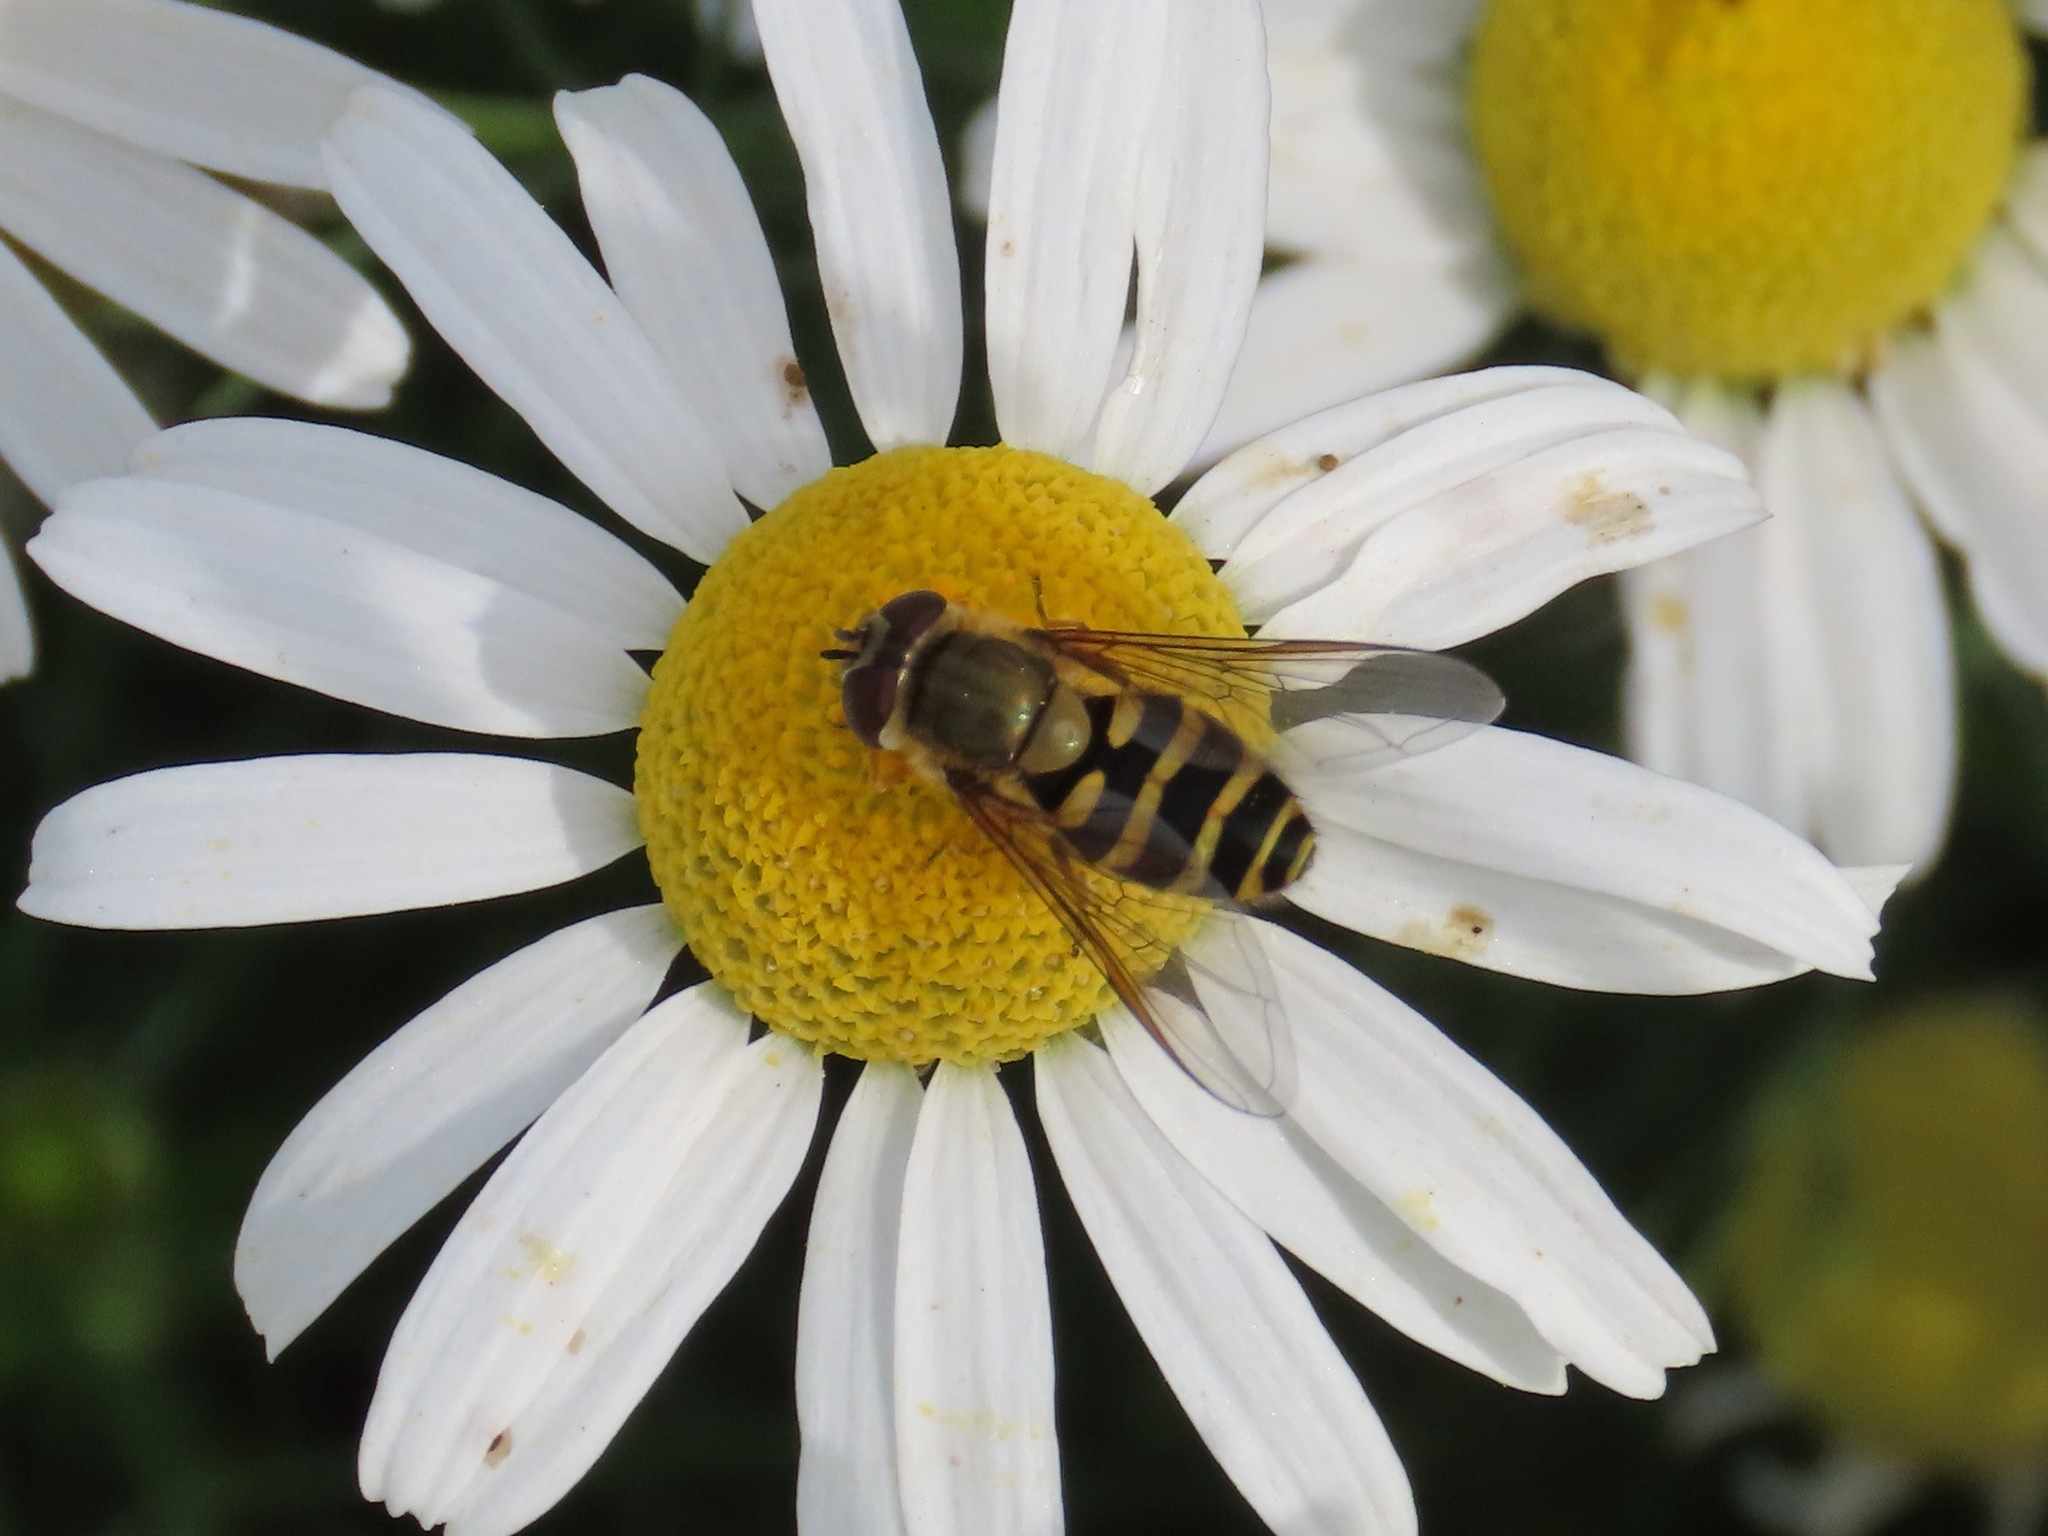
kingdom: Animalia
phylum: Arthropoda
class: Insecta
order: Diptera
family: Syrphidae
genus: Syrphus
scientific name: Syrphus
